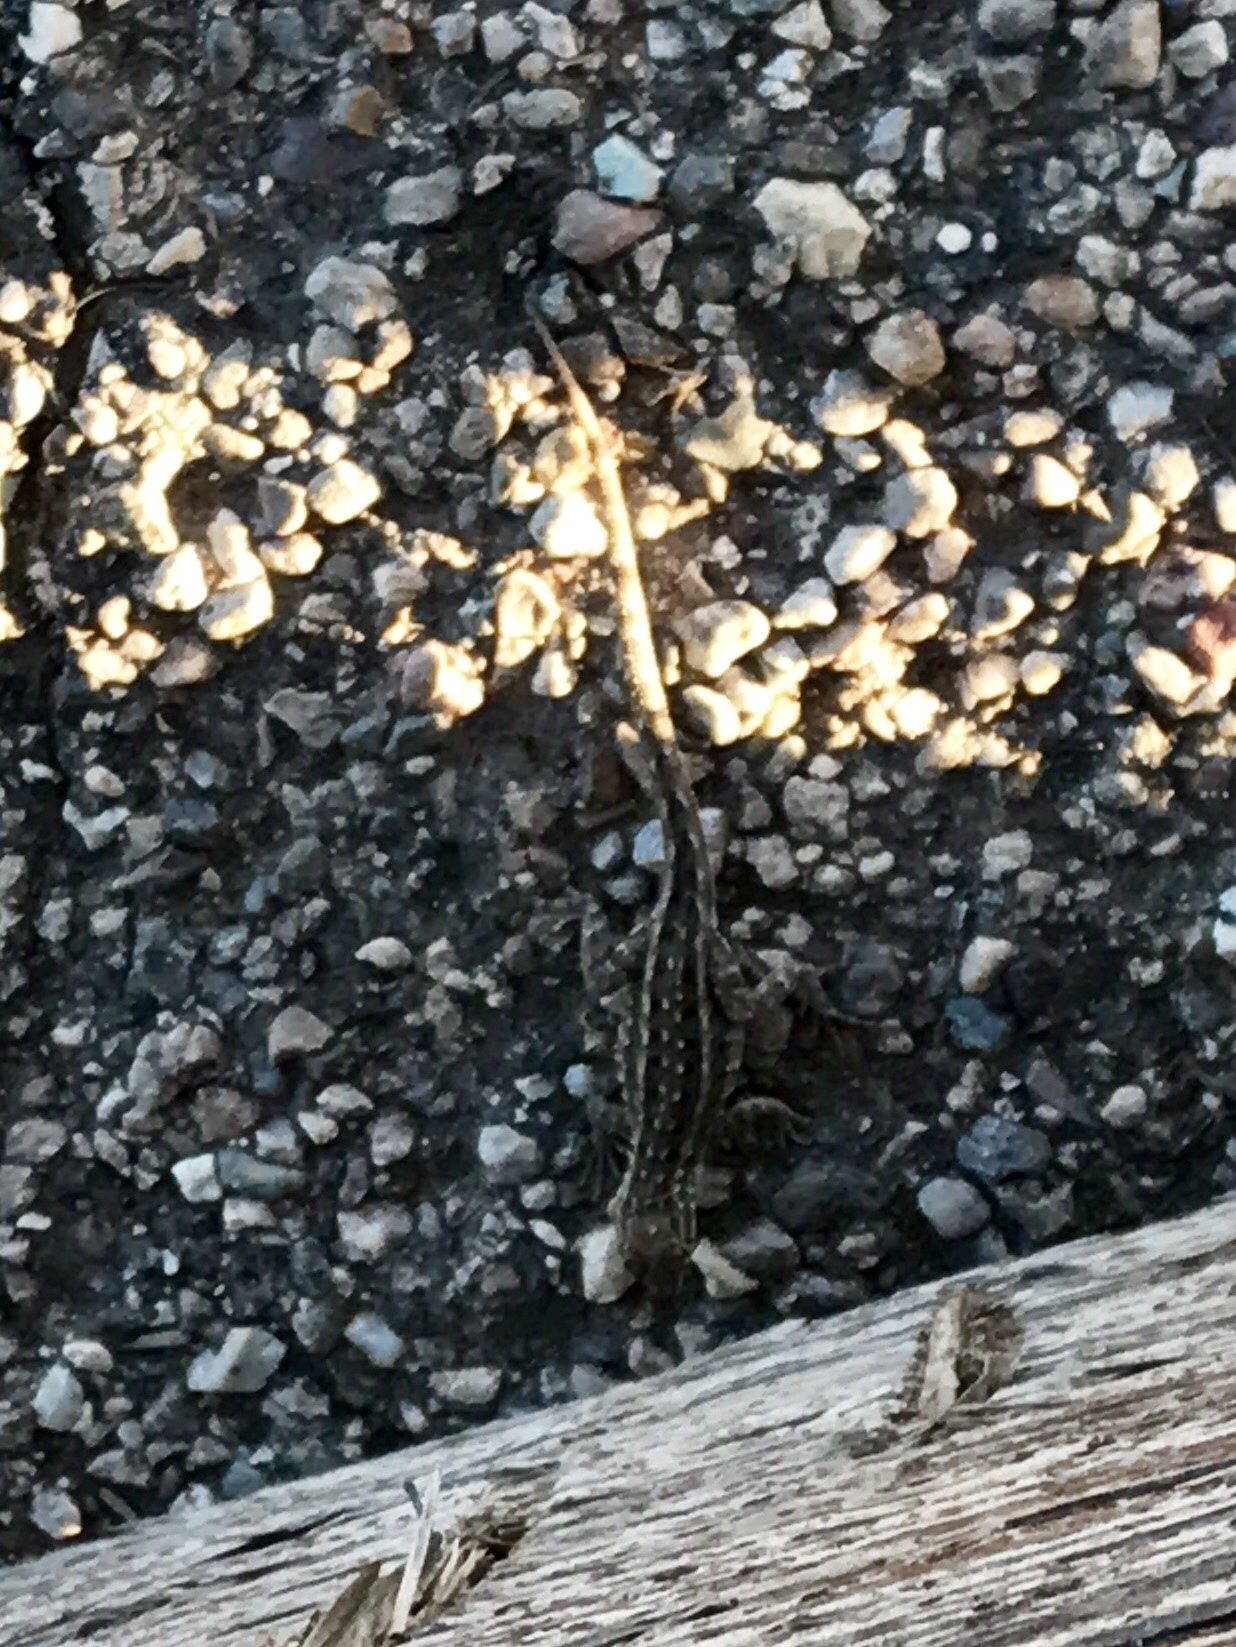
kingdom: Animalia
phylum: Chordata
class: Squamata
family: Phrynosomatidae
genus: Uta
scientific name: Uta stansburiana
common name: Side-blotched lizard
